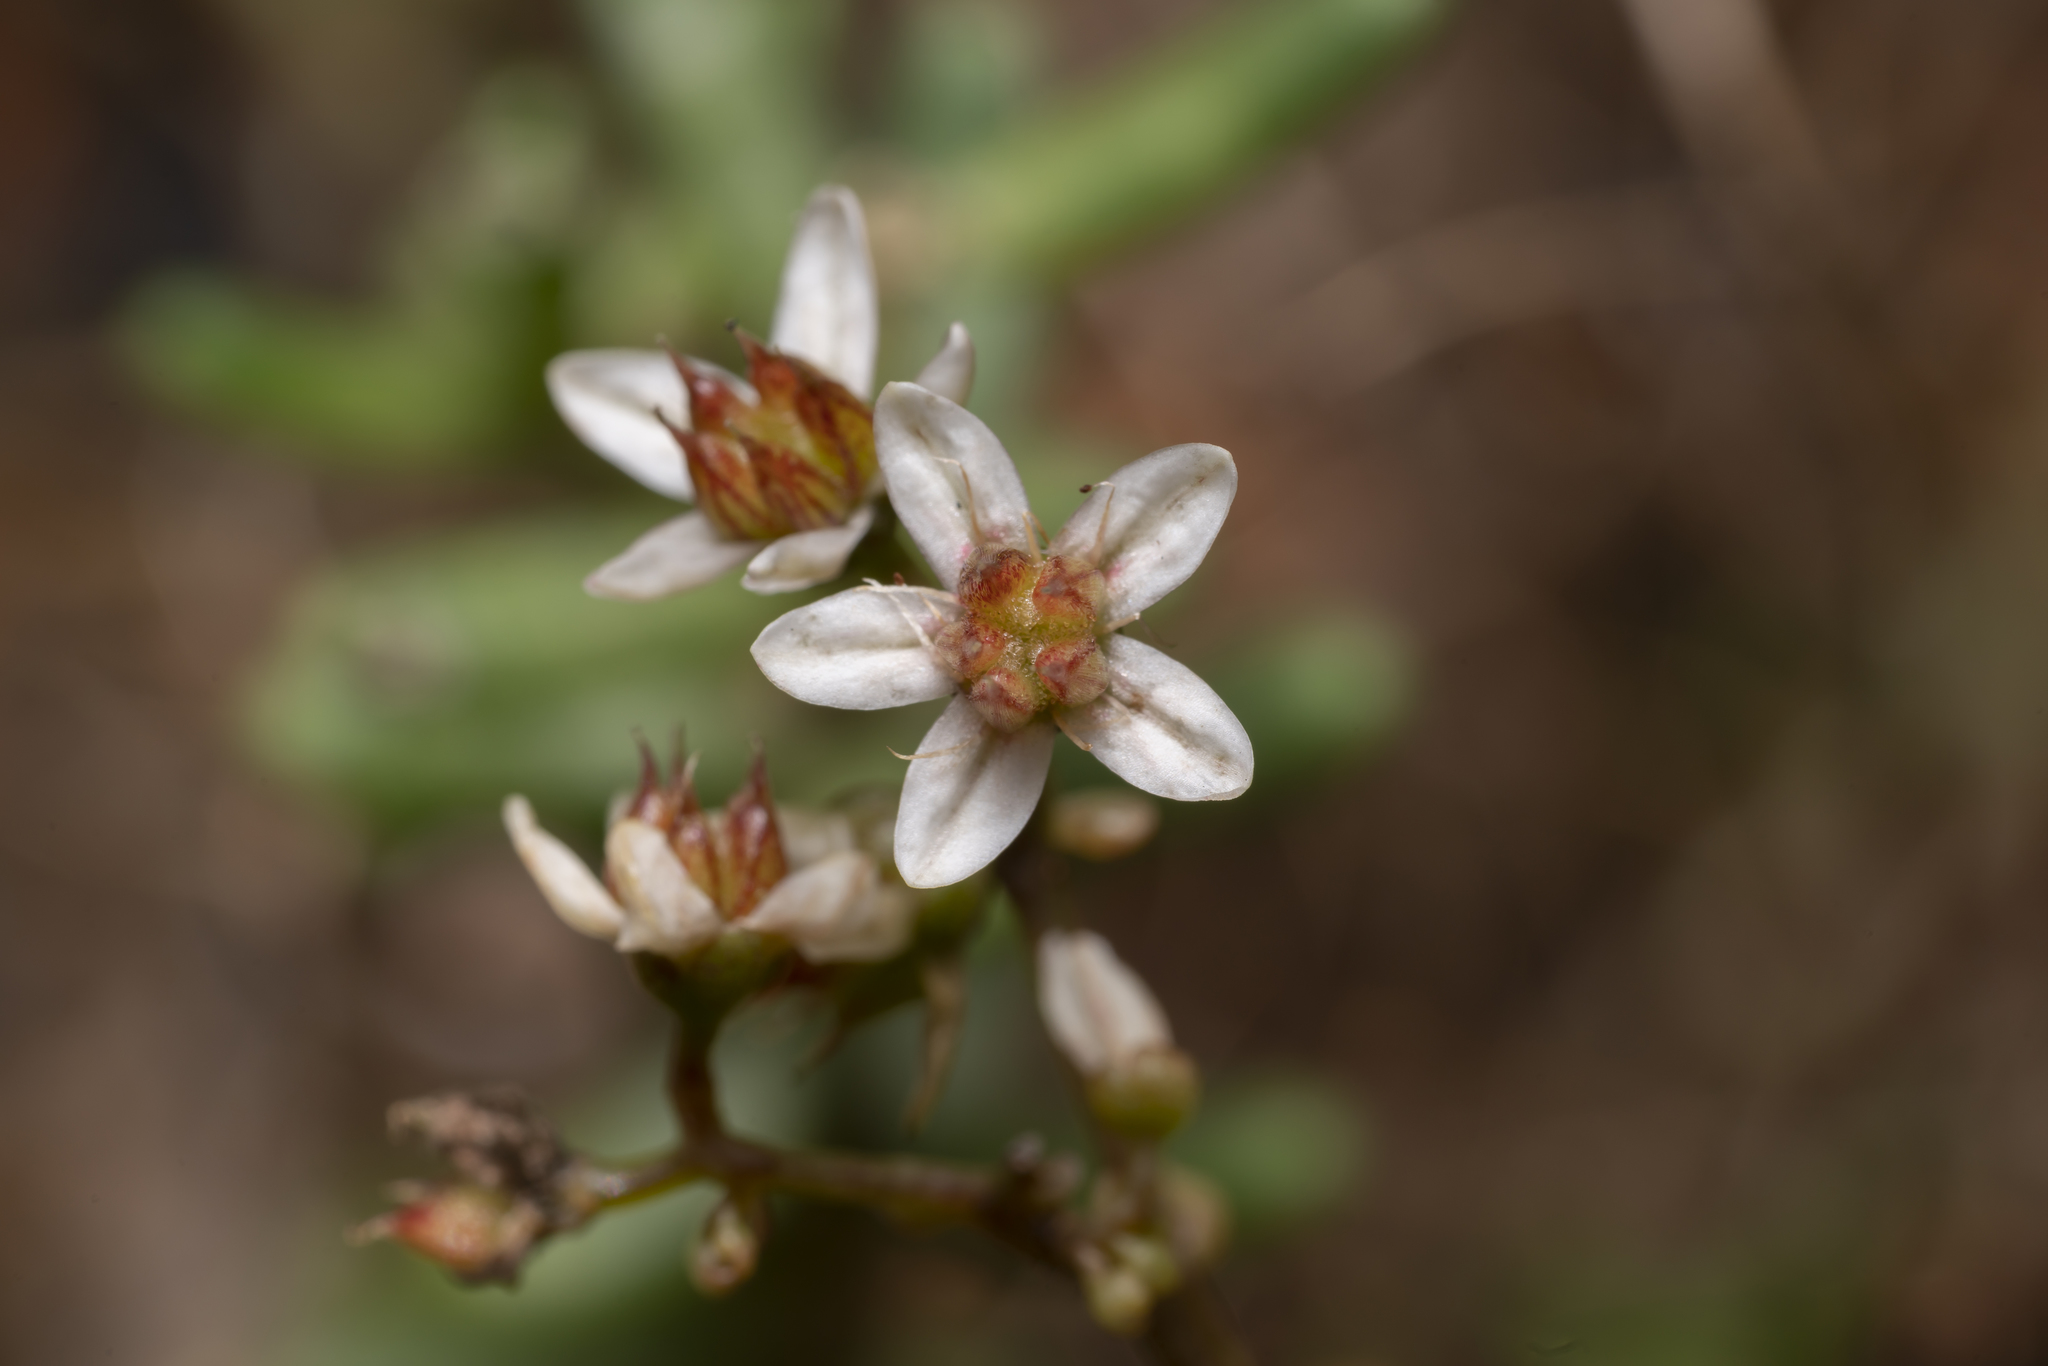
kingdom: Plantae
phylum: Tracheophyta
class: Magnoliopsida
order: Saxifragales
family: Crassulaceae
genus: Sedum
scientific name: Sedum album
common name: White stonecrop
